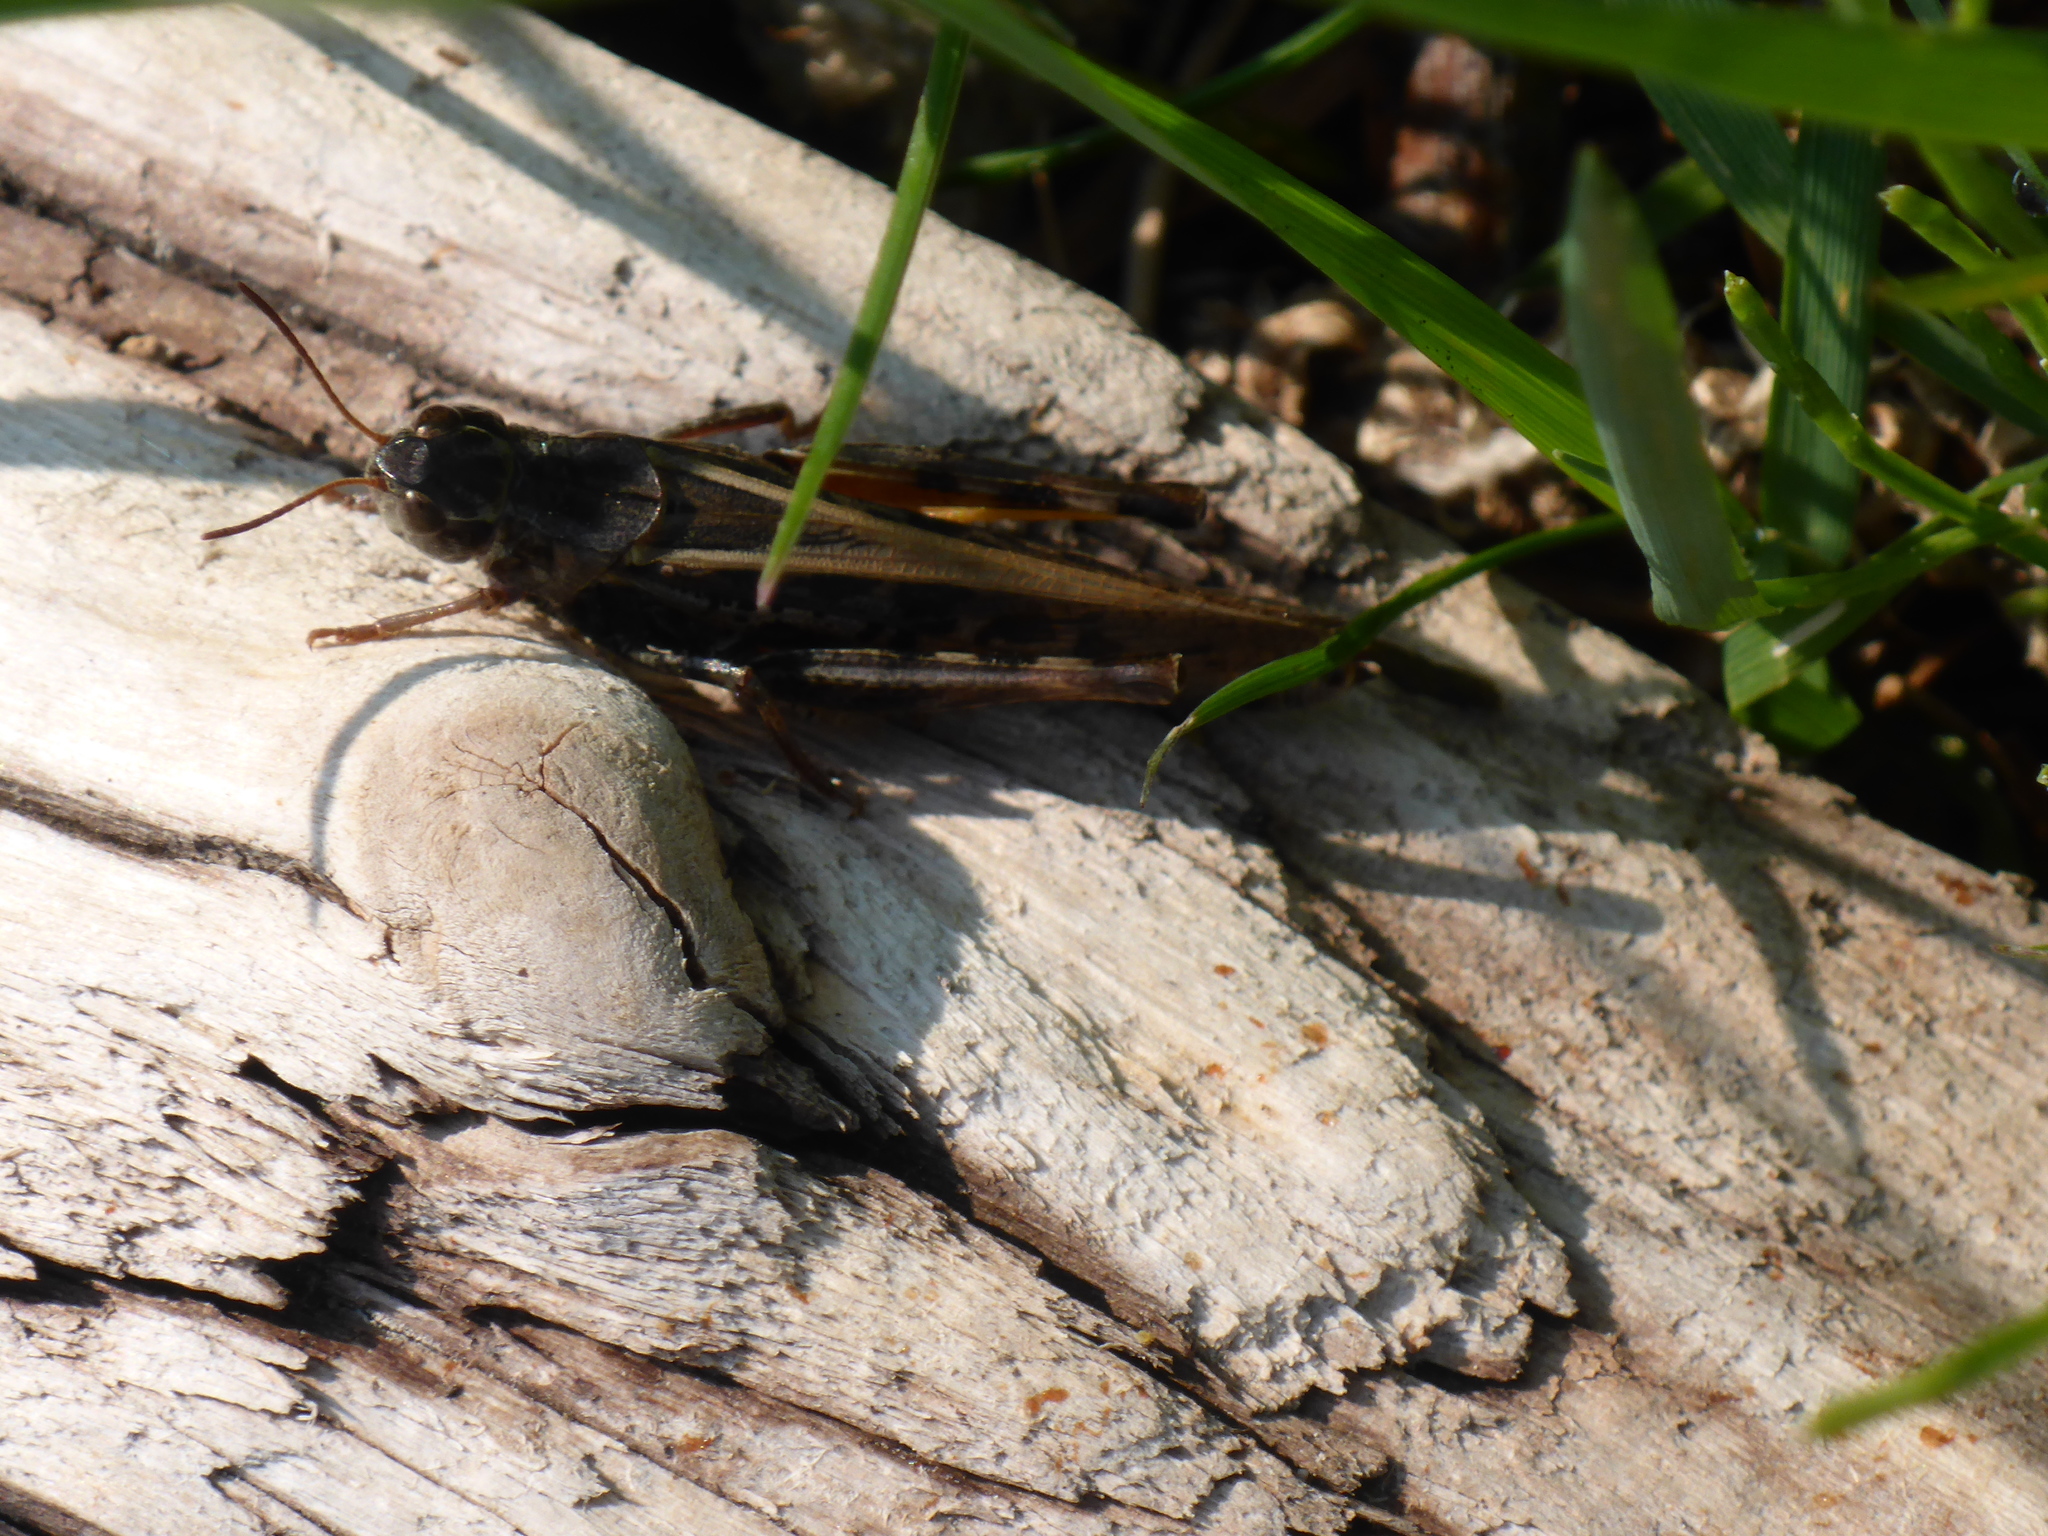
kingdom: Animalia
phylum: Arthropoda
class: Insecta
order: Orthoptera
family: Acrididae
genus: Camnula
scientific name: Camnula pellucida
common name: Clear-winged grasshopper
